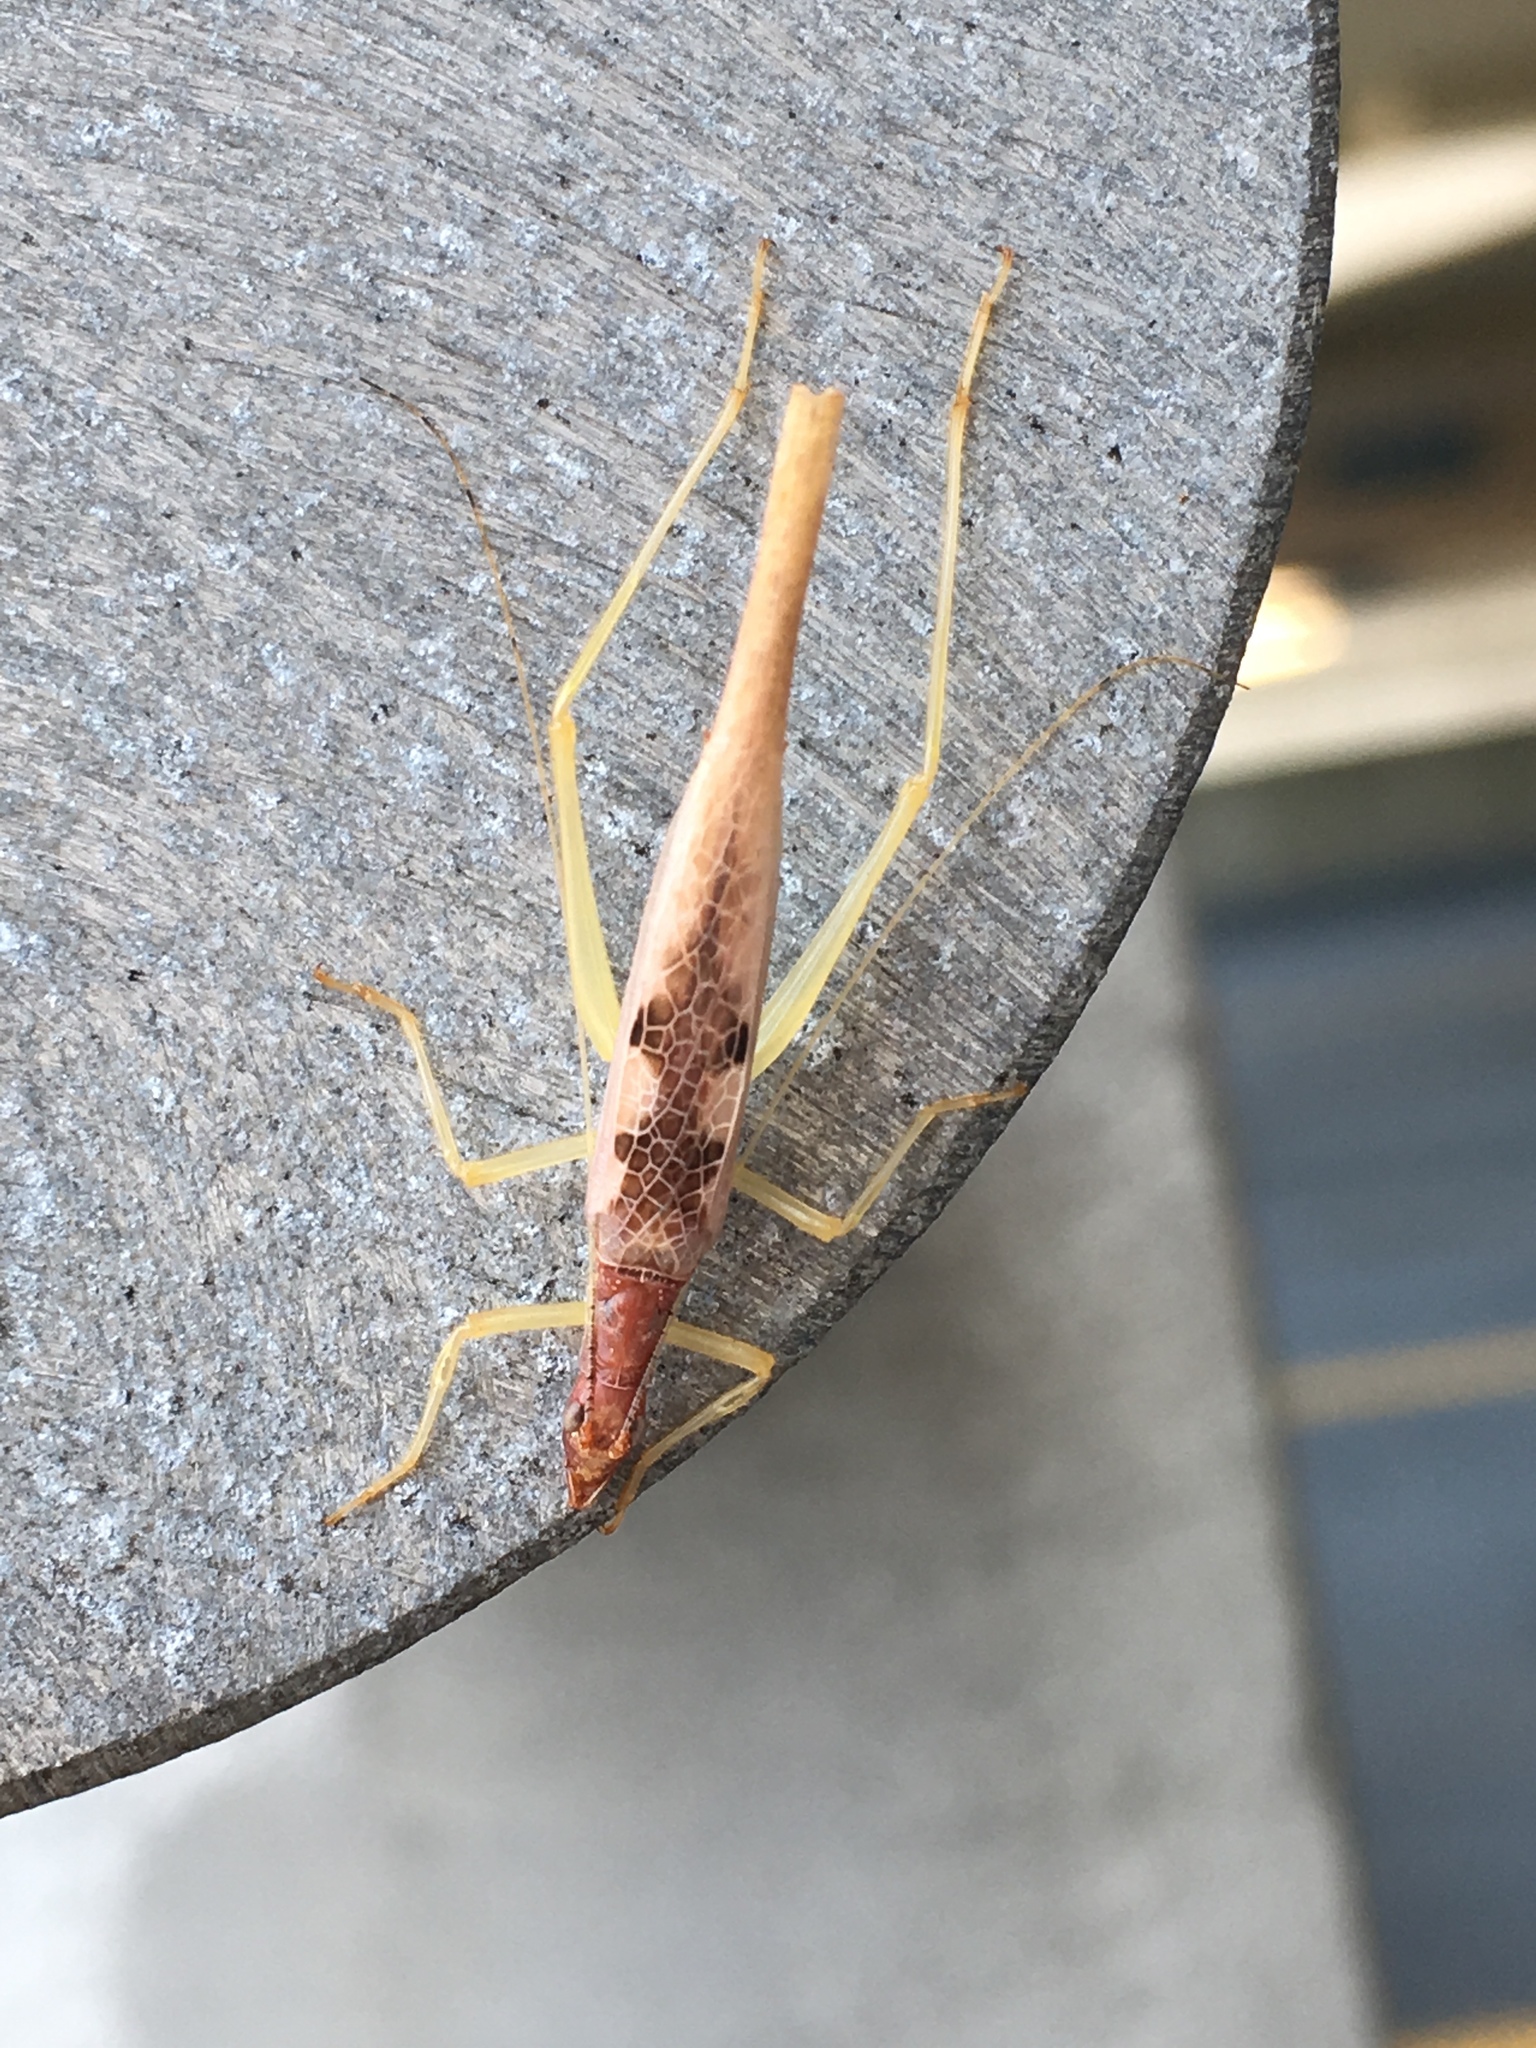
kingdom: Animalia
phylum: Arthropoda
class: Insecta
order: Orthoptera
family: Gryllidae
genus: Neoxabea
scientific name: Neoxabea bipunctata
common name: Two-spotted tree cricket
